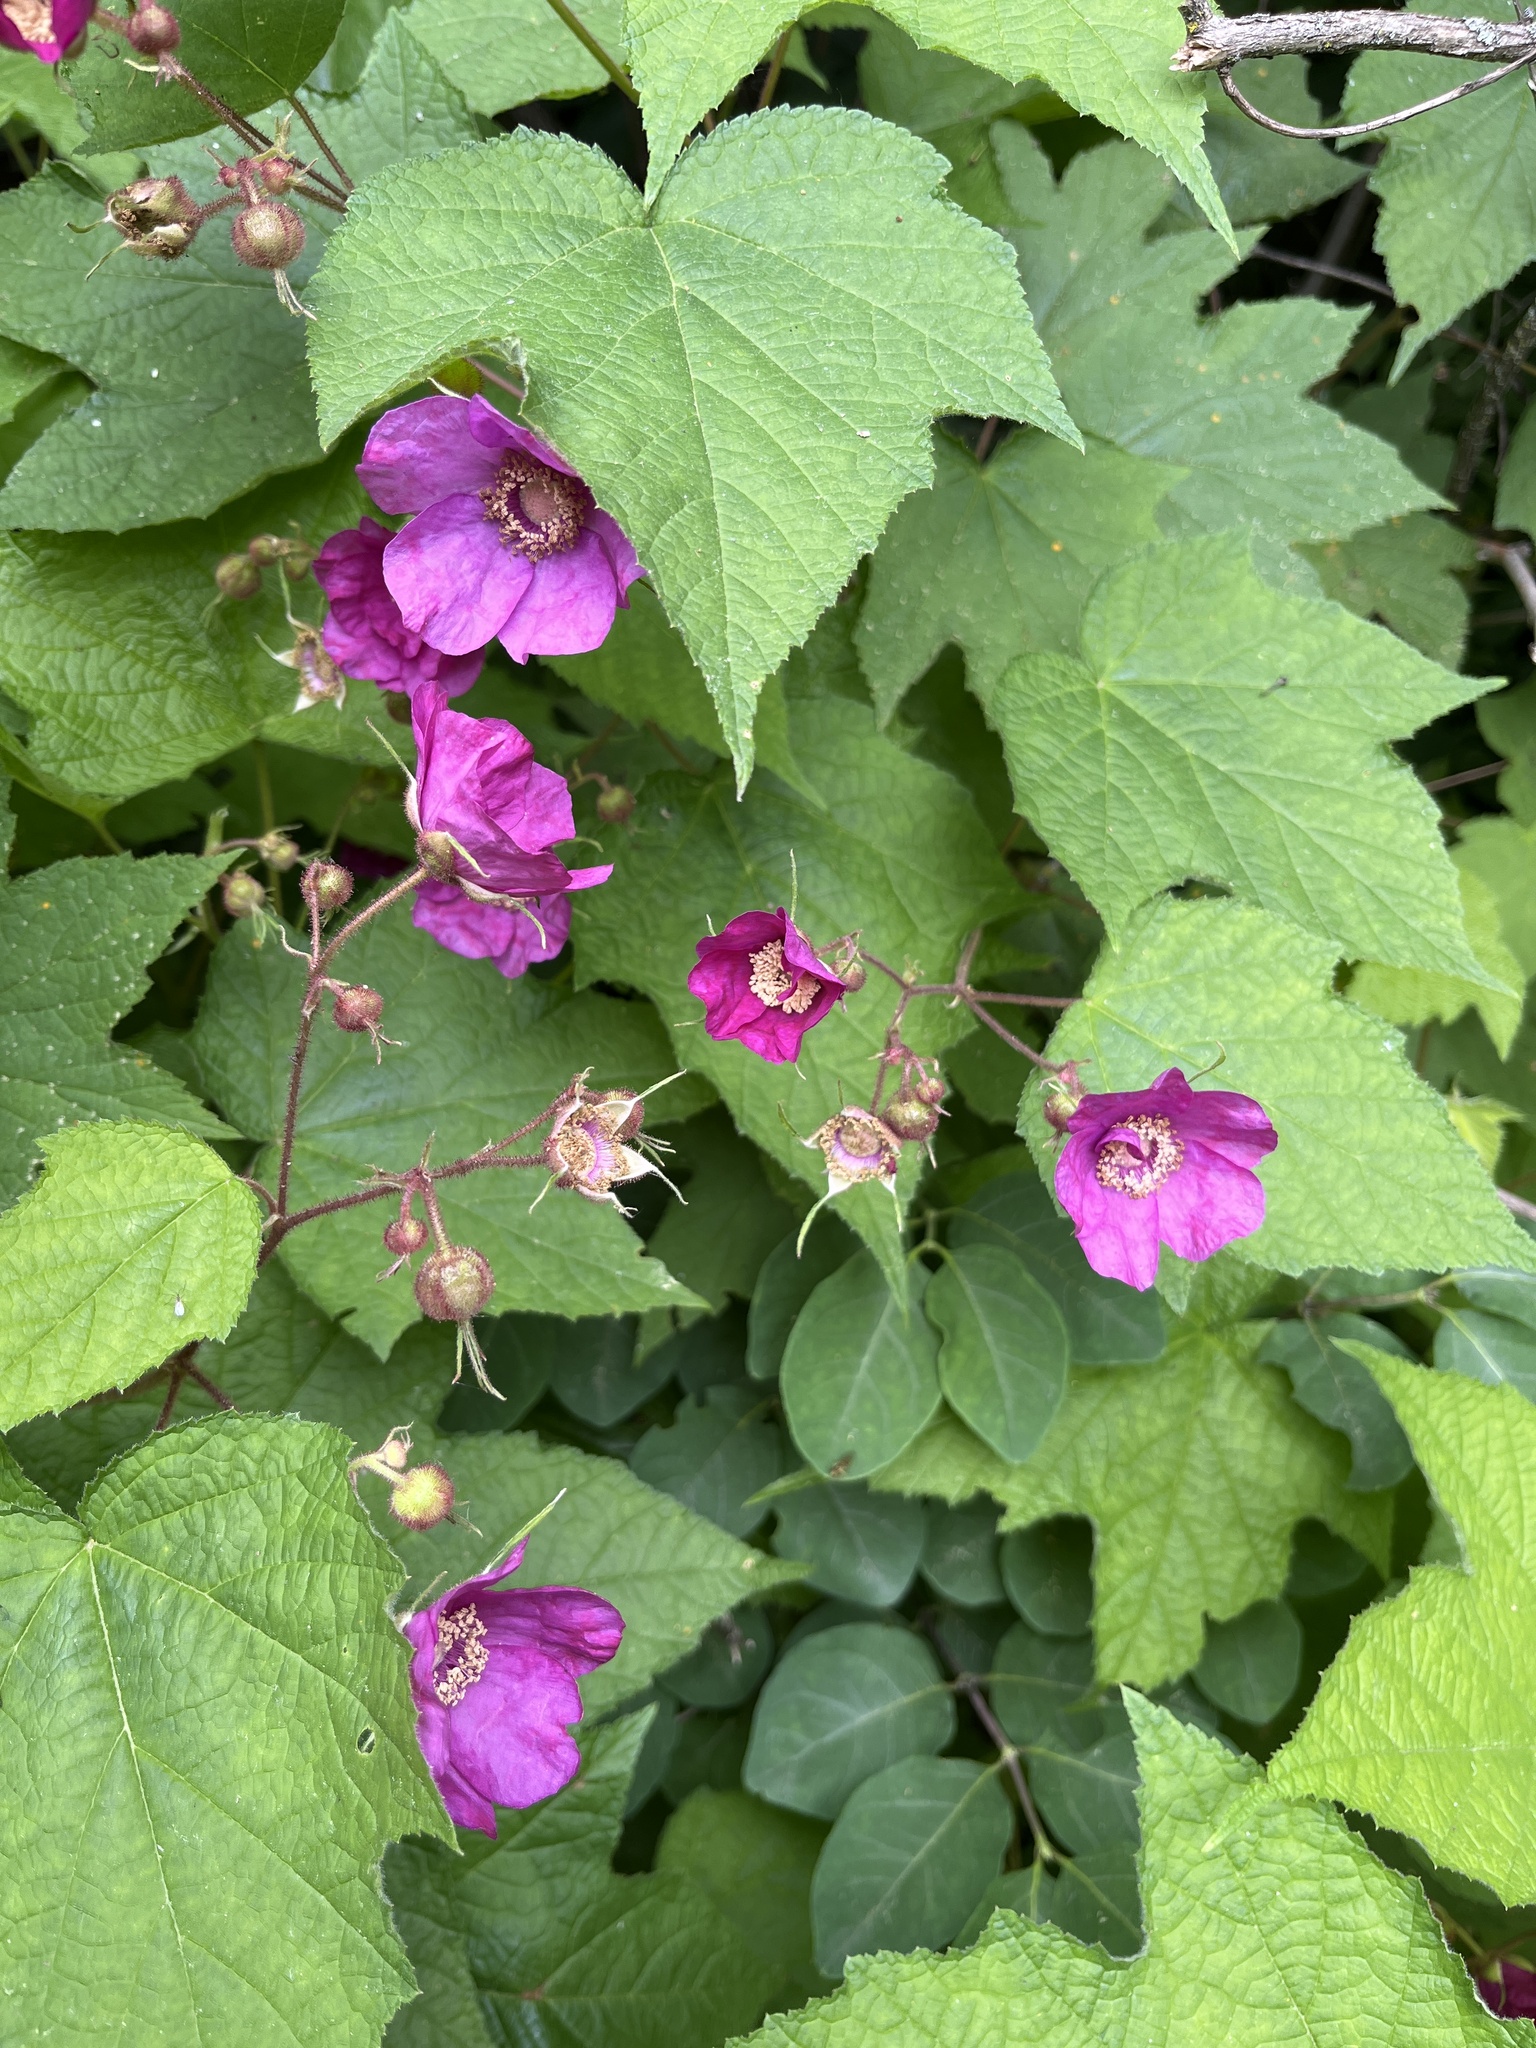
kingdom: Plantae
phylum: Tracheophyta
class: Magnoliopsida
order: Rosales
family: Rosaceae
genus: Rubus
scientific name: Rubus odoratus
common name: Purple-flowered raspberry
